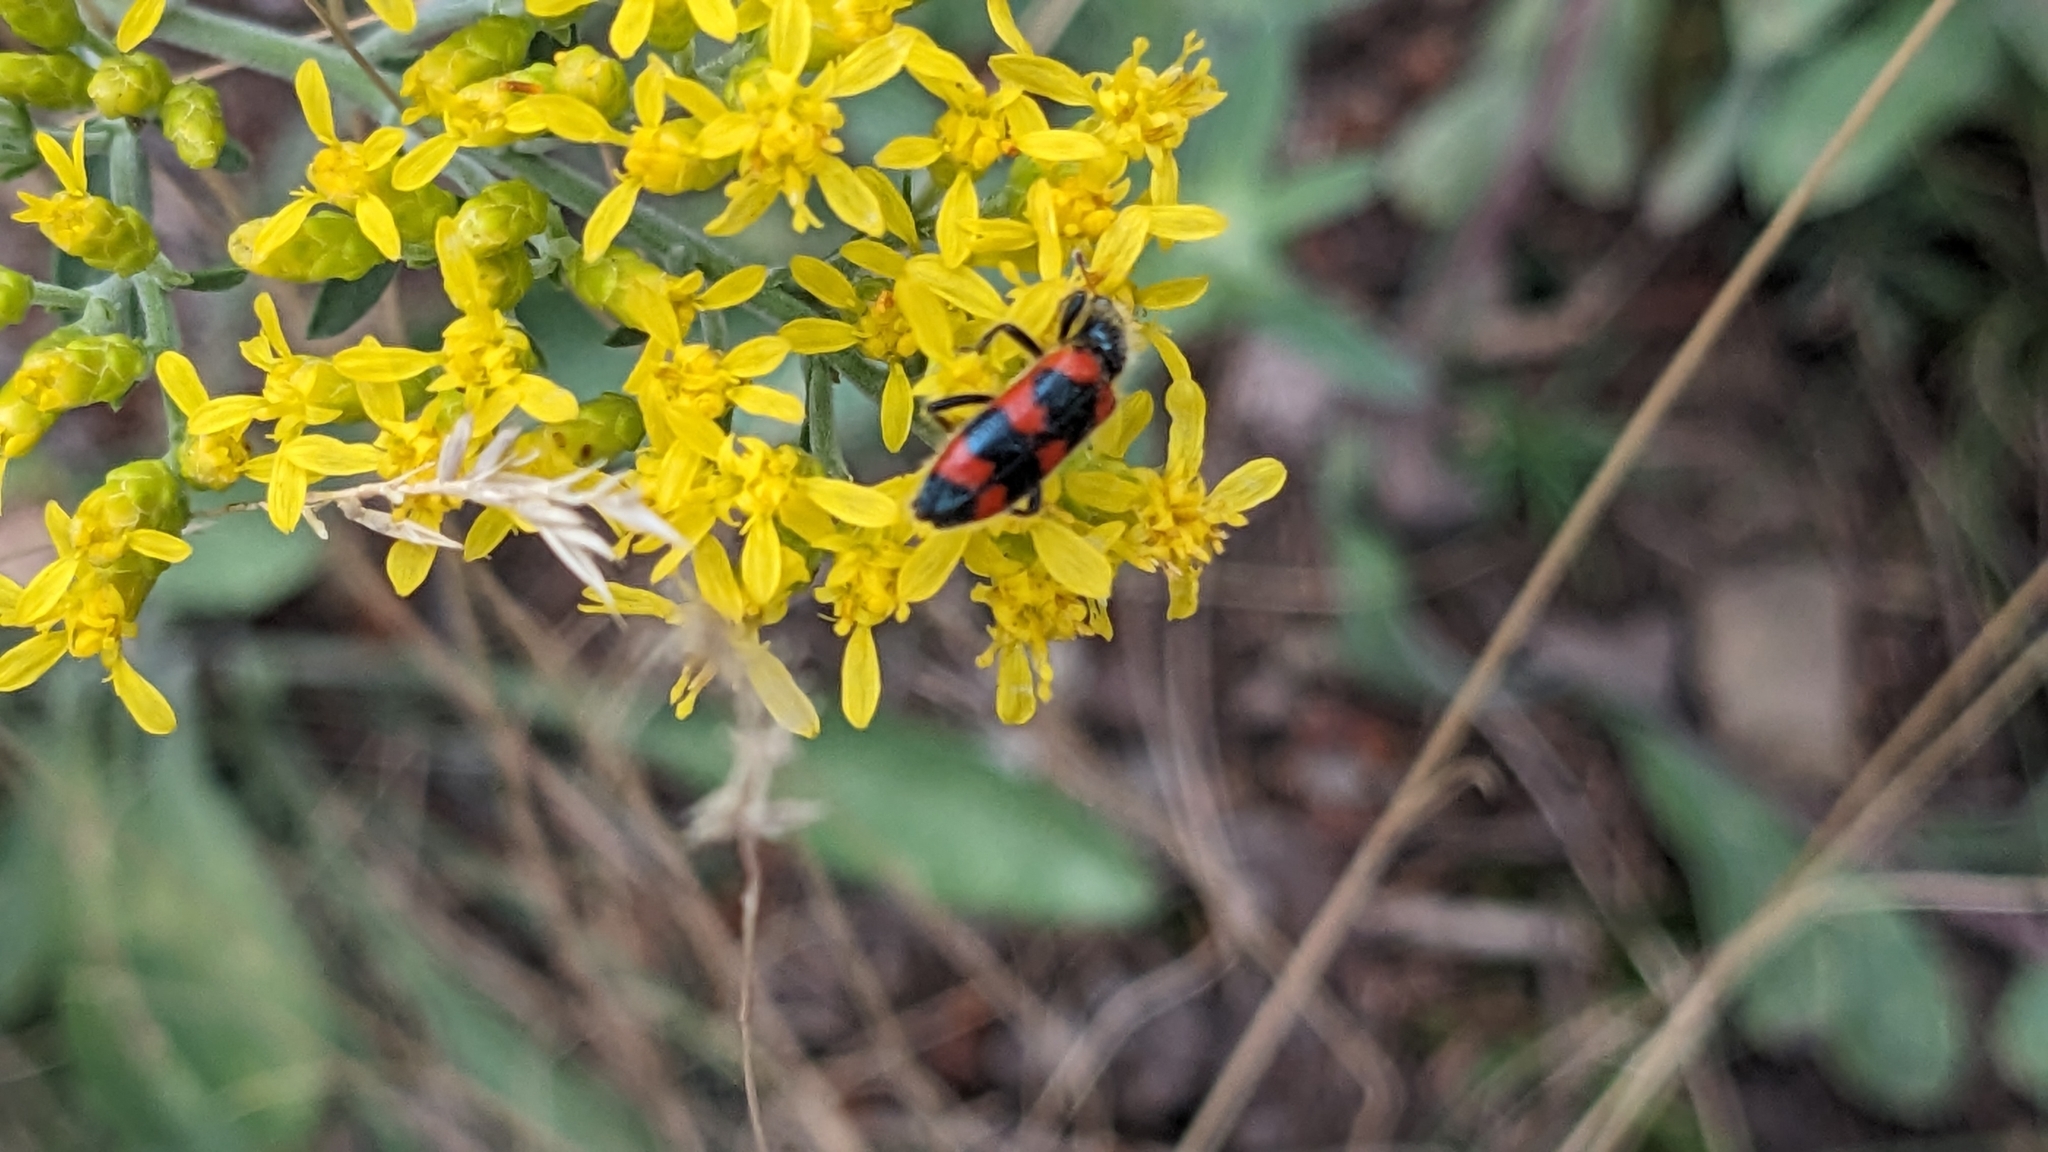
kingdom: Animalia
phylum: Arthropoda
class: Insecta
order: Coleoptera
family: Cleridae
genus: Trichodes
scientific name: Trichodes nutalli
